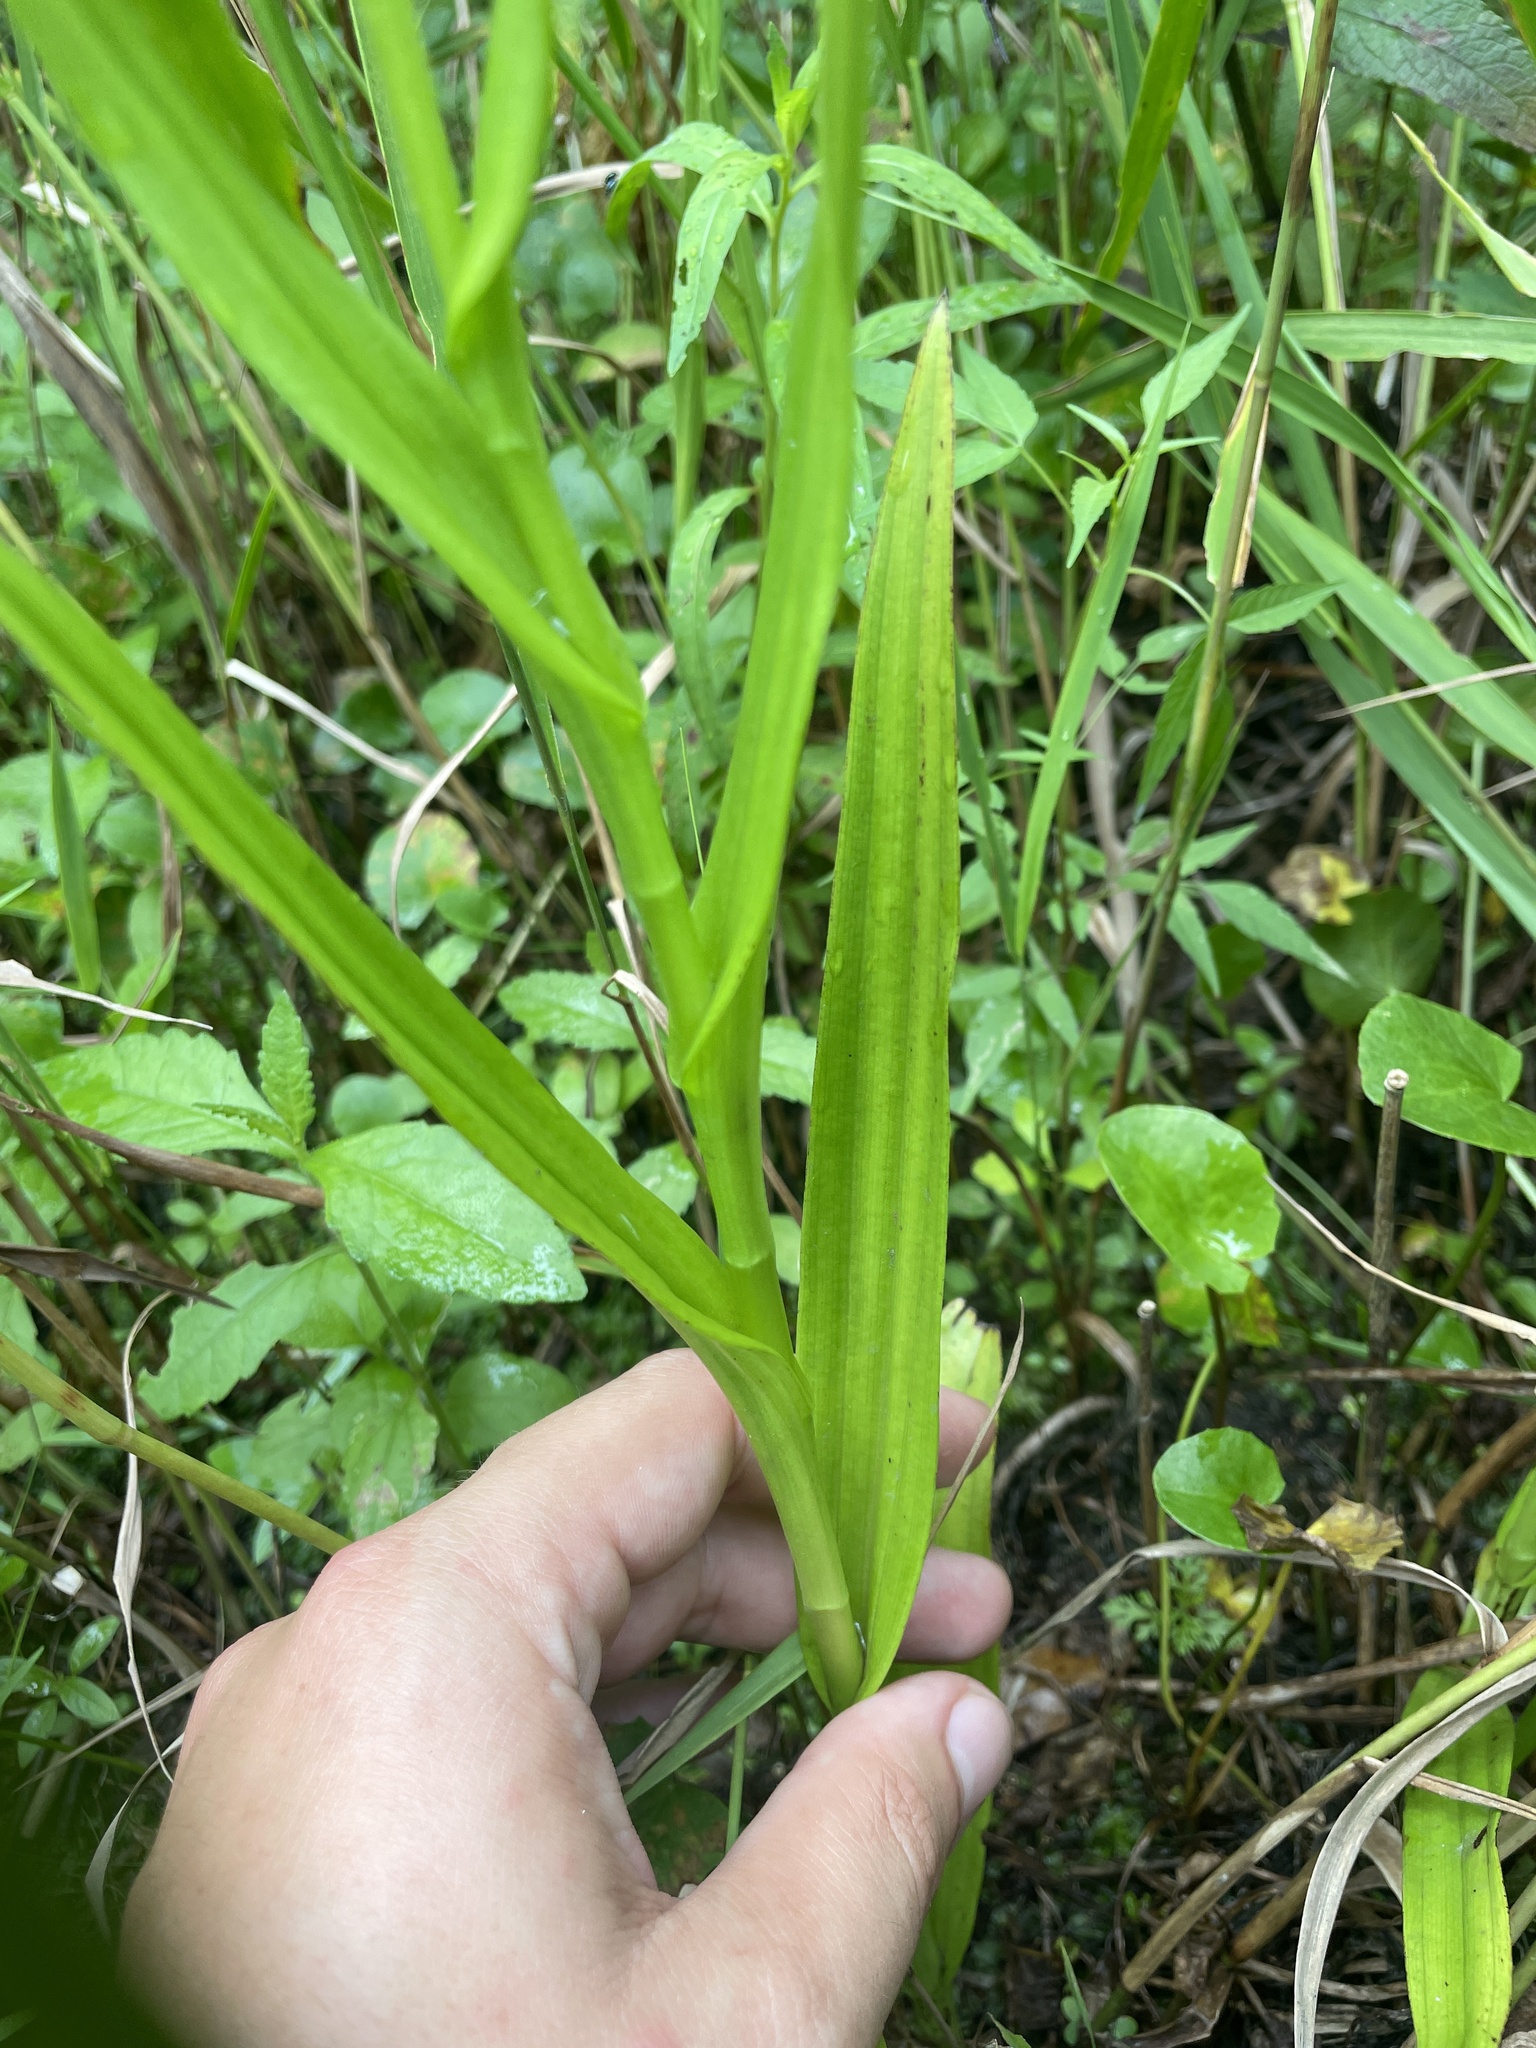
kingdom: Plantae
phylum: Tracheophyta
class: Liliopsida
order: Asparagales
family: Orchidaceae
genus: Habenaria
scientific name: Habenaria repens
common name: Water orchid
